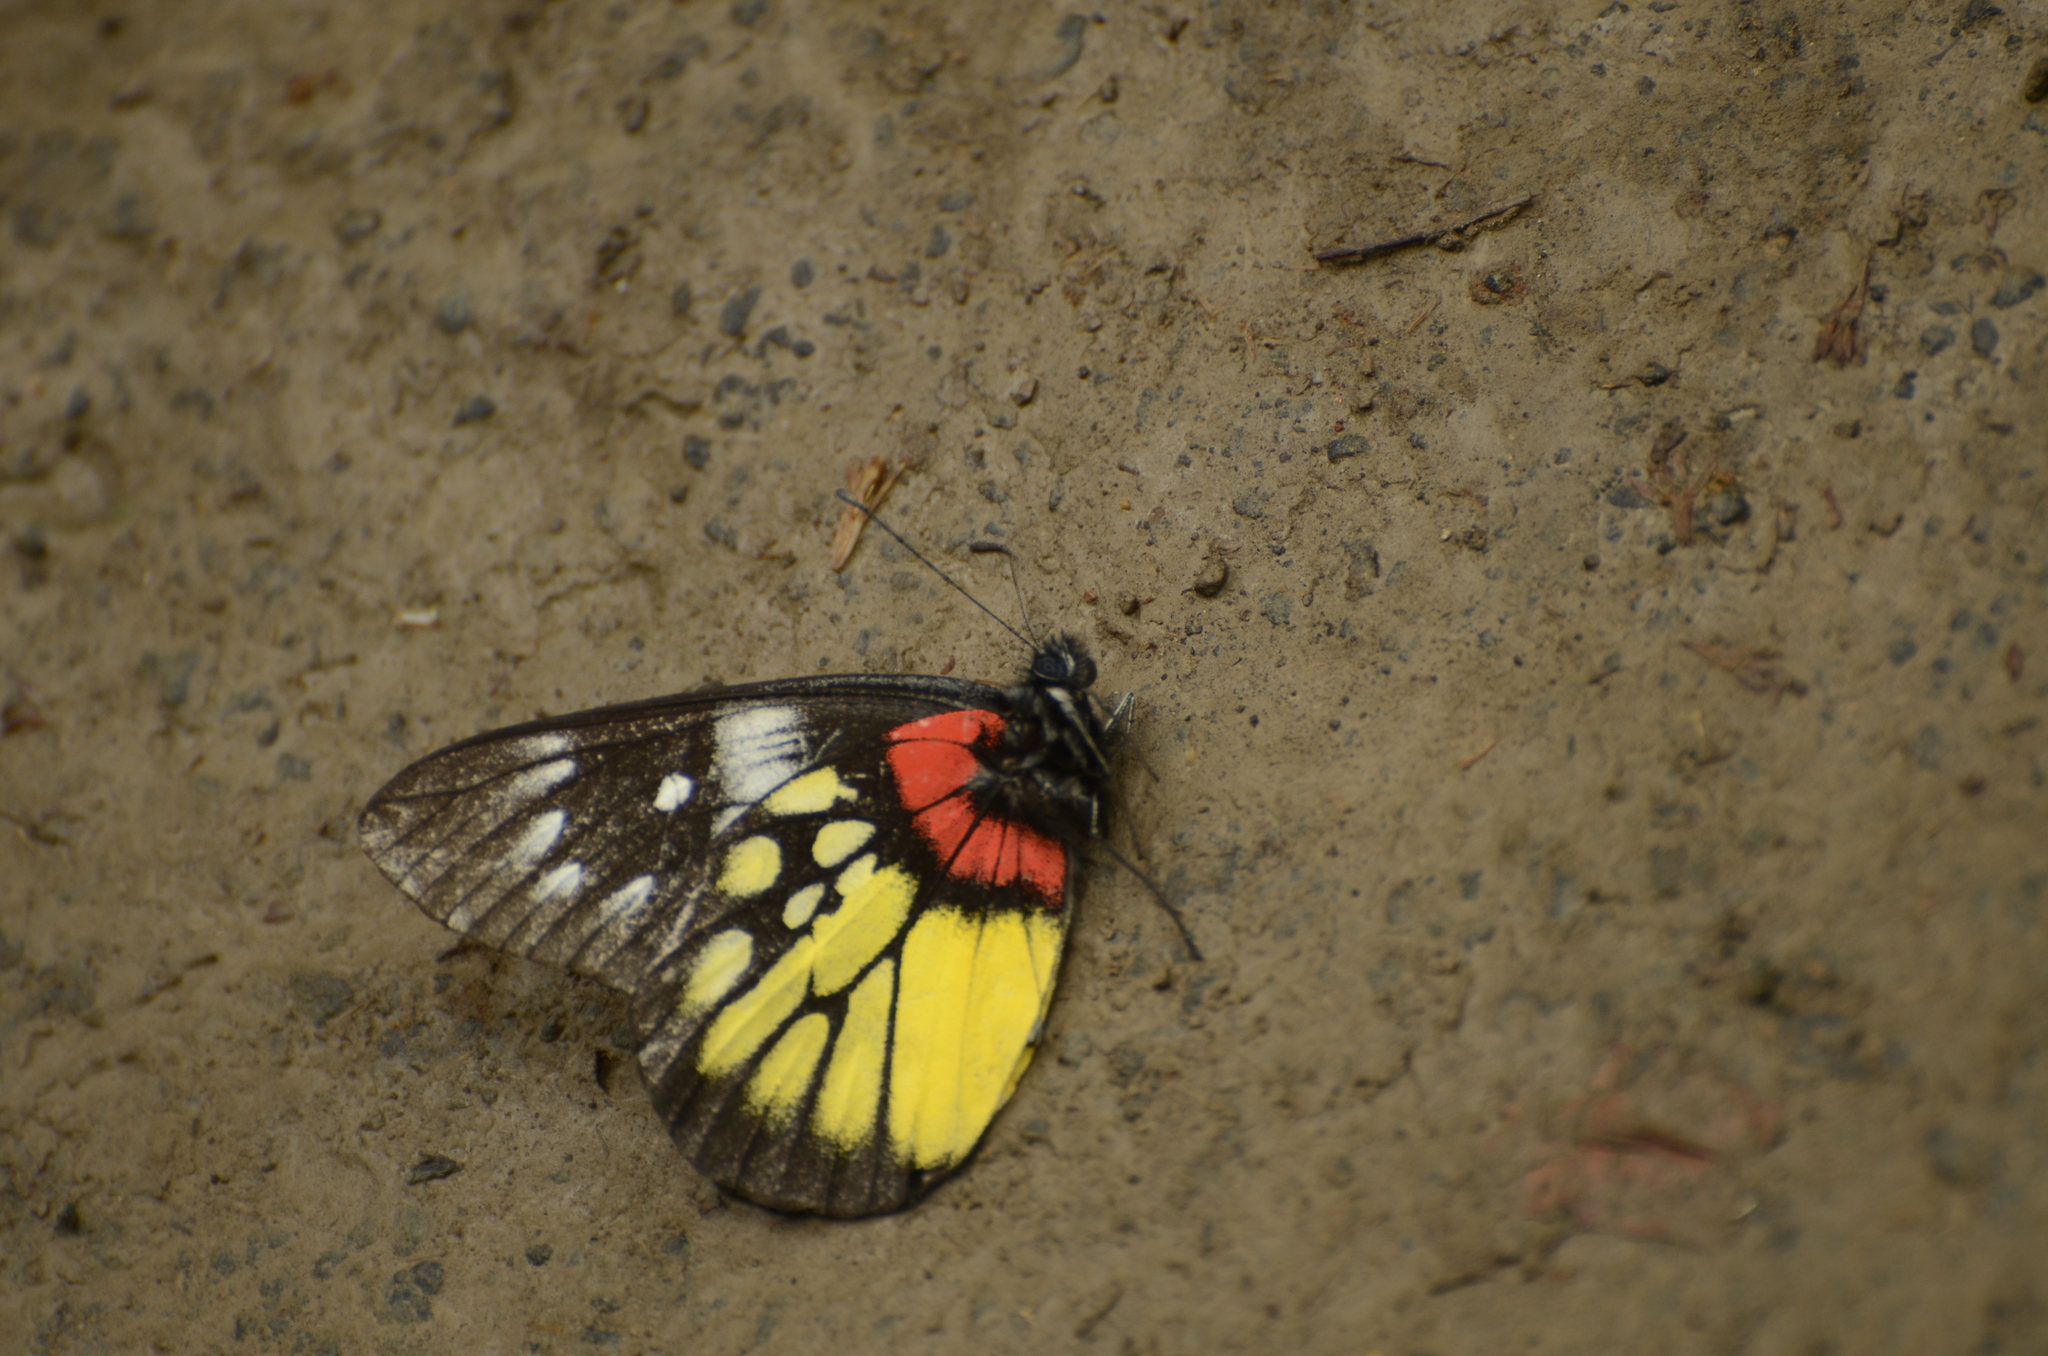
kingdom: Animalia
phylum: Arthropoda
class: Insecta
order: Lepidoptera
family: Pieridae
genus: Delias
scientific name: Delias pasithoe
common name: Red-base jezebel
